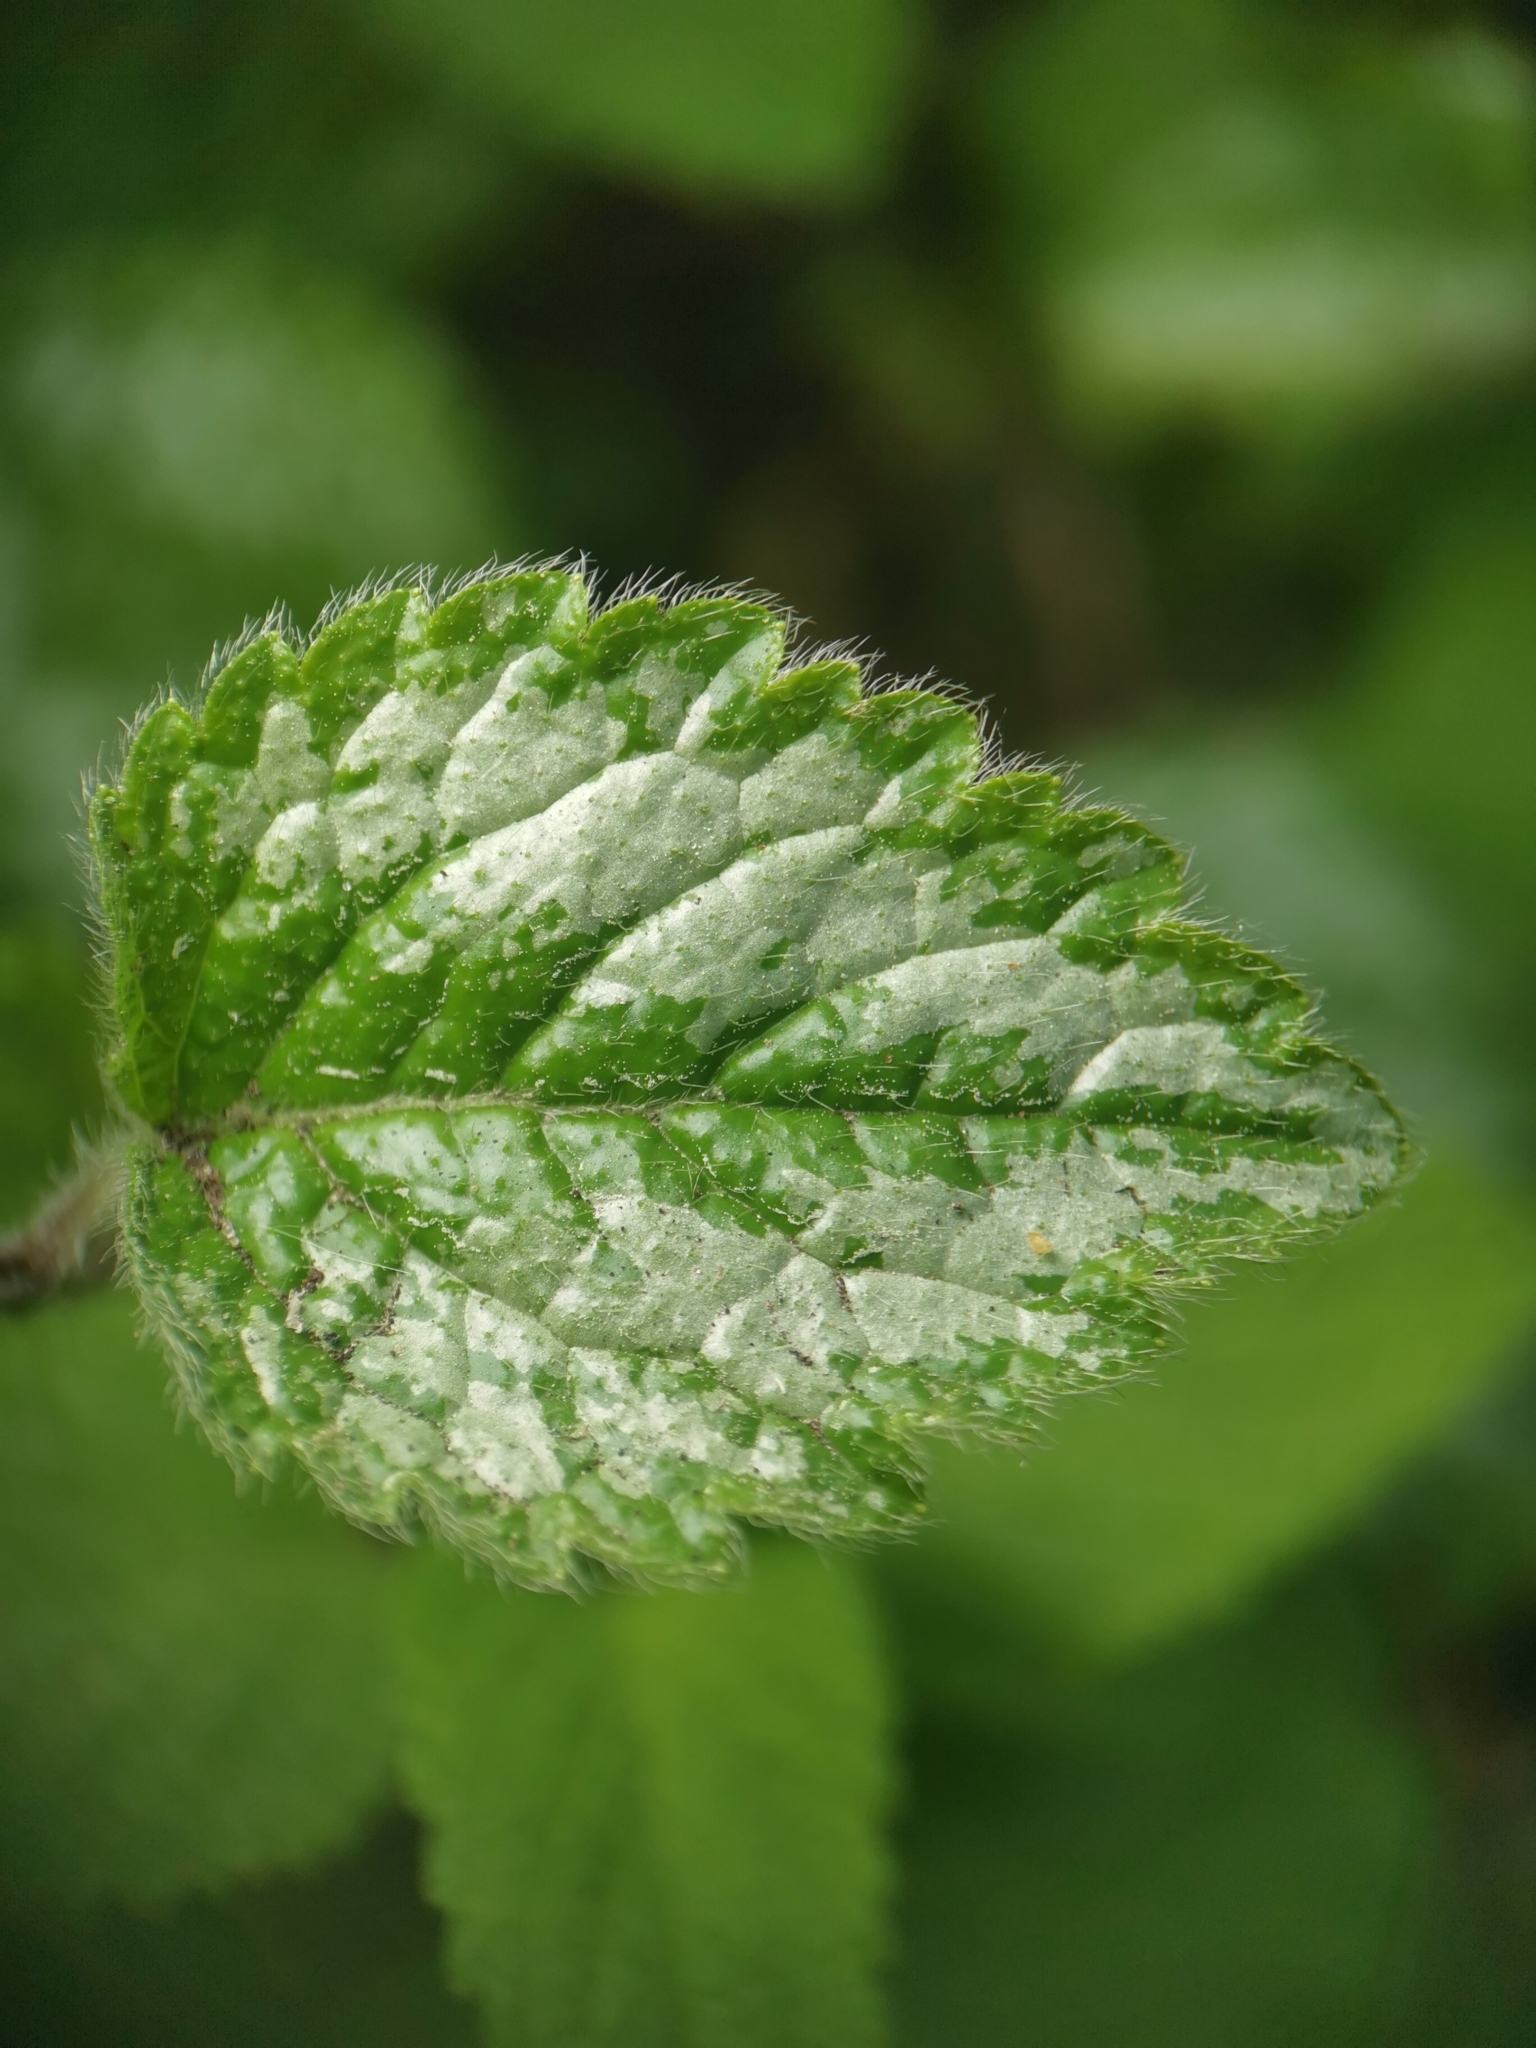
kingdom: Plantae
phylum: Tracheophyta
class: Magnoliopsida
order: Lamiales
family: Lamiaceae
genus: Lamium
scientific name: Lamium galeobdolon
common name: Yellow archangel
